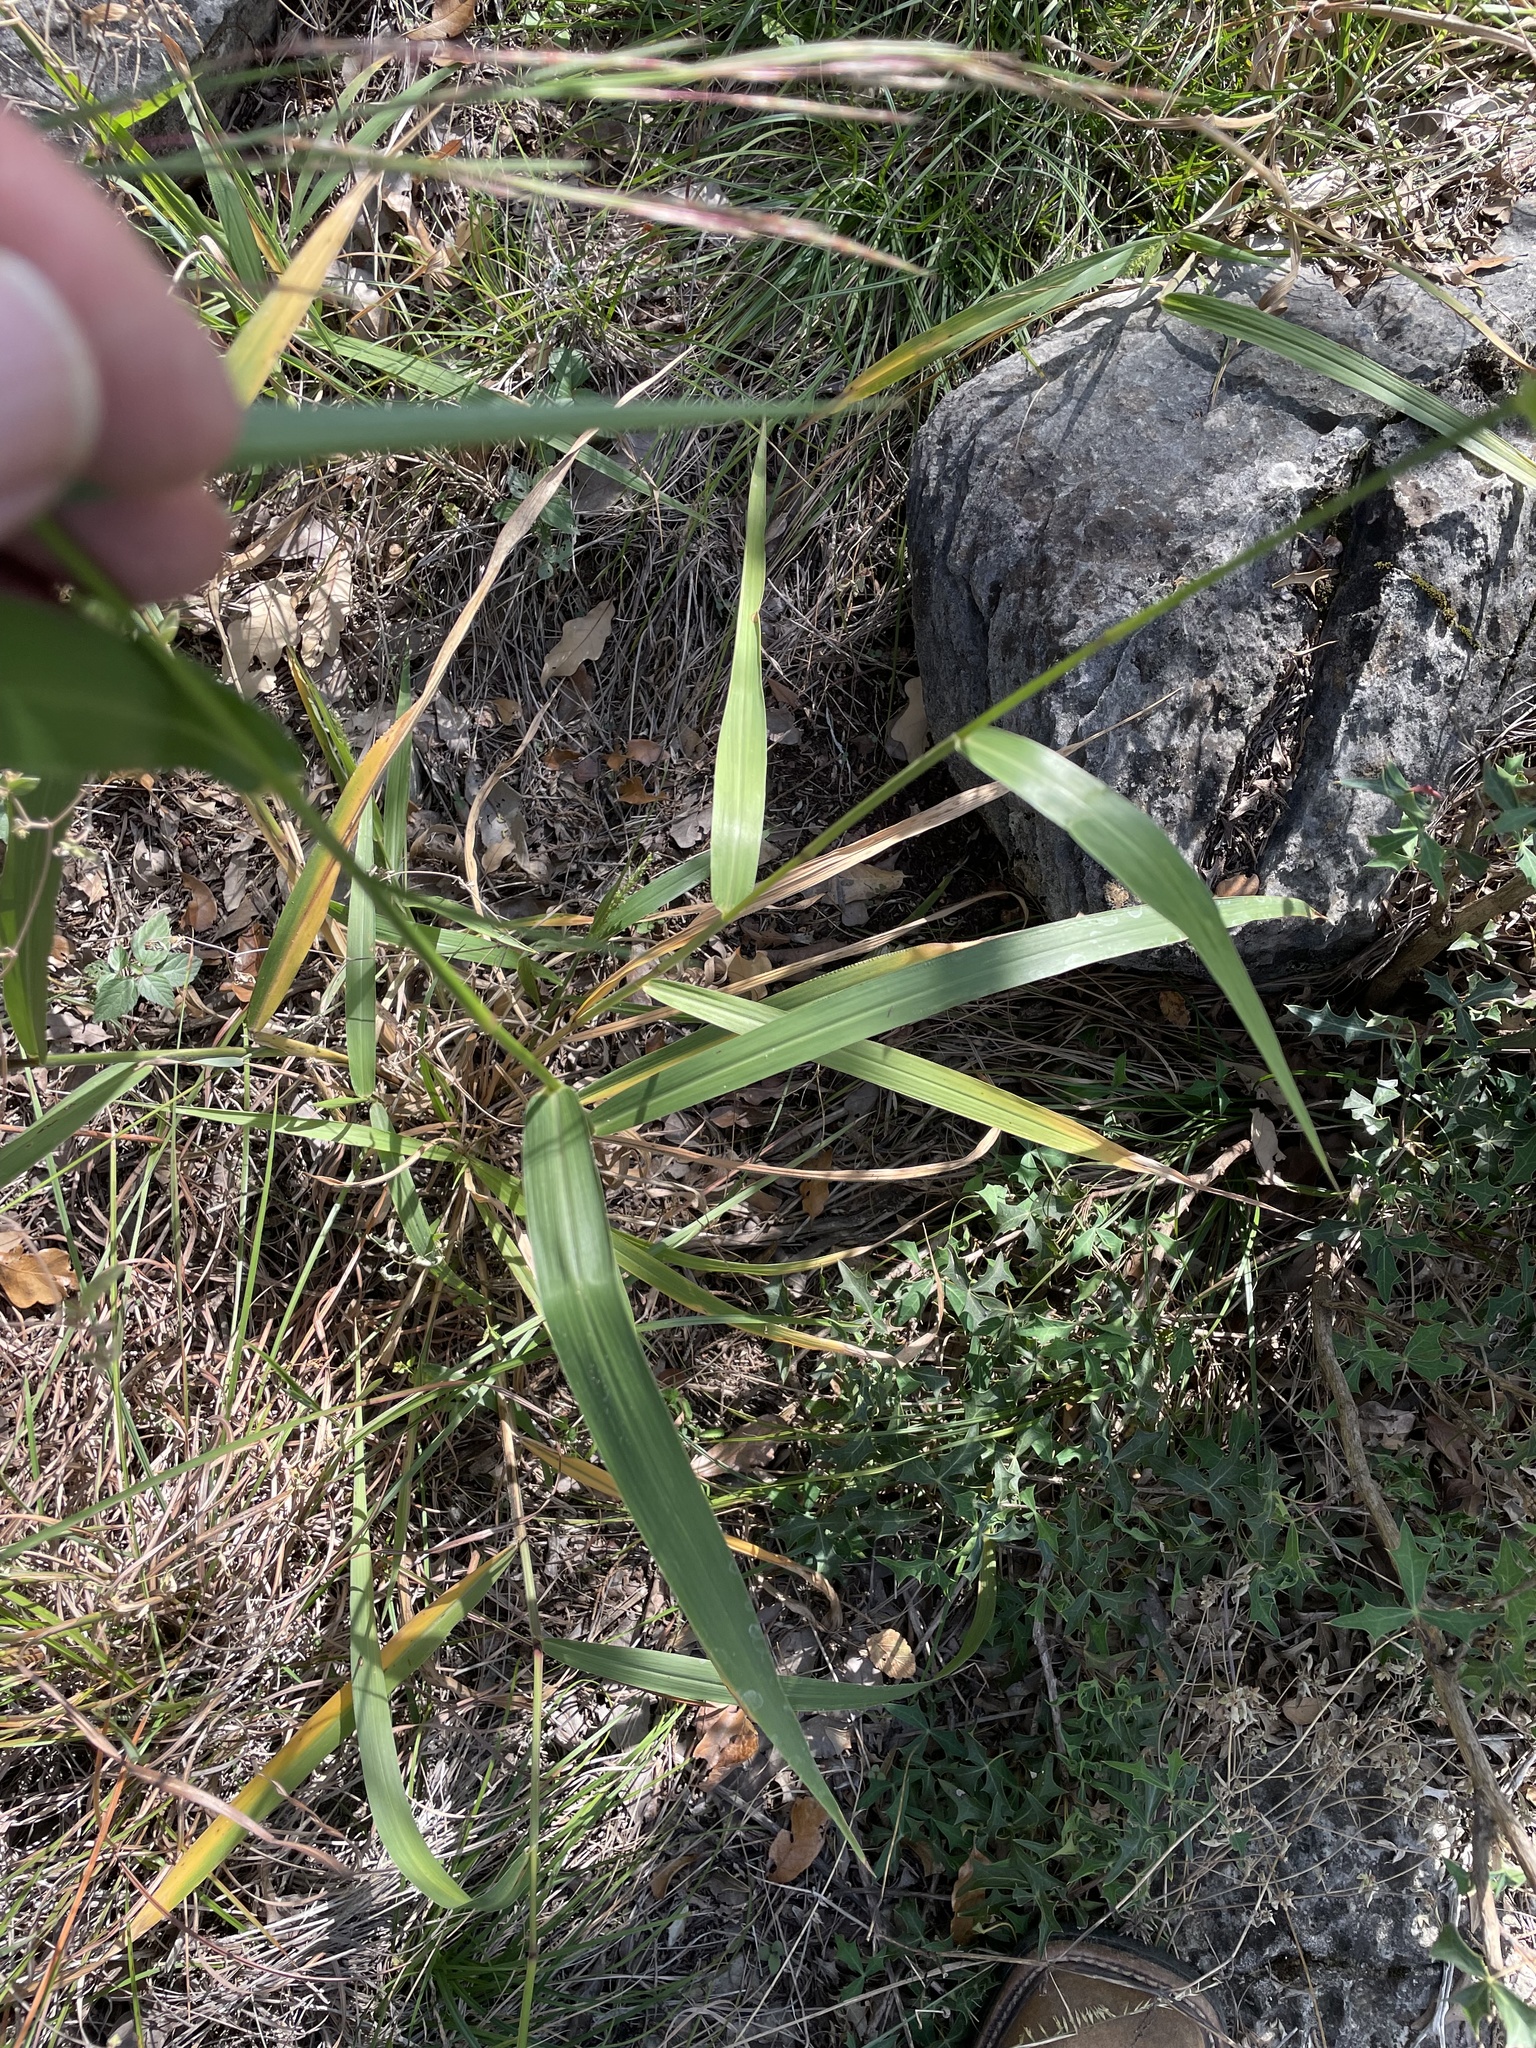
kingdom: Plantae
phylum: Tracheophyta
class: Liliopsida
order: Poales
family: Poaceae
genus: Setaria
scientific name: Setaria scheelei
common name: Southwestern bristle grass
